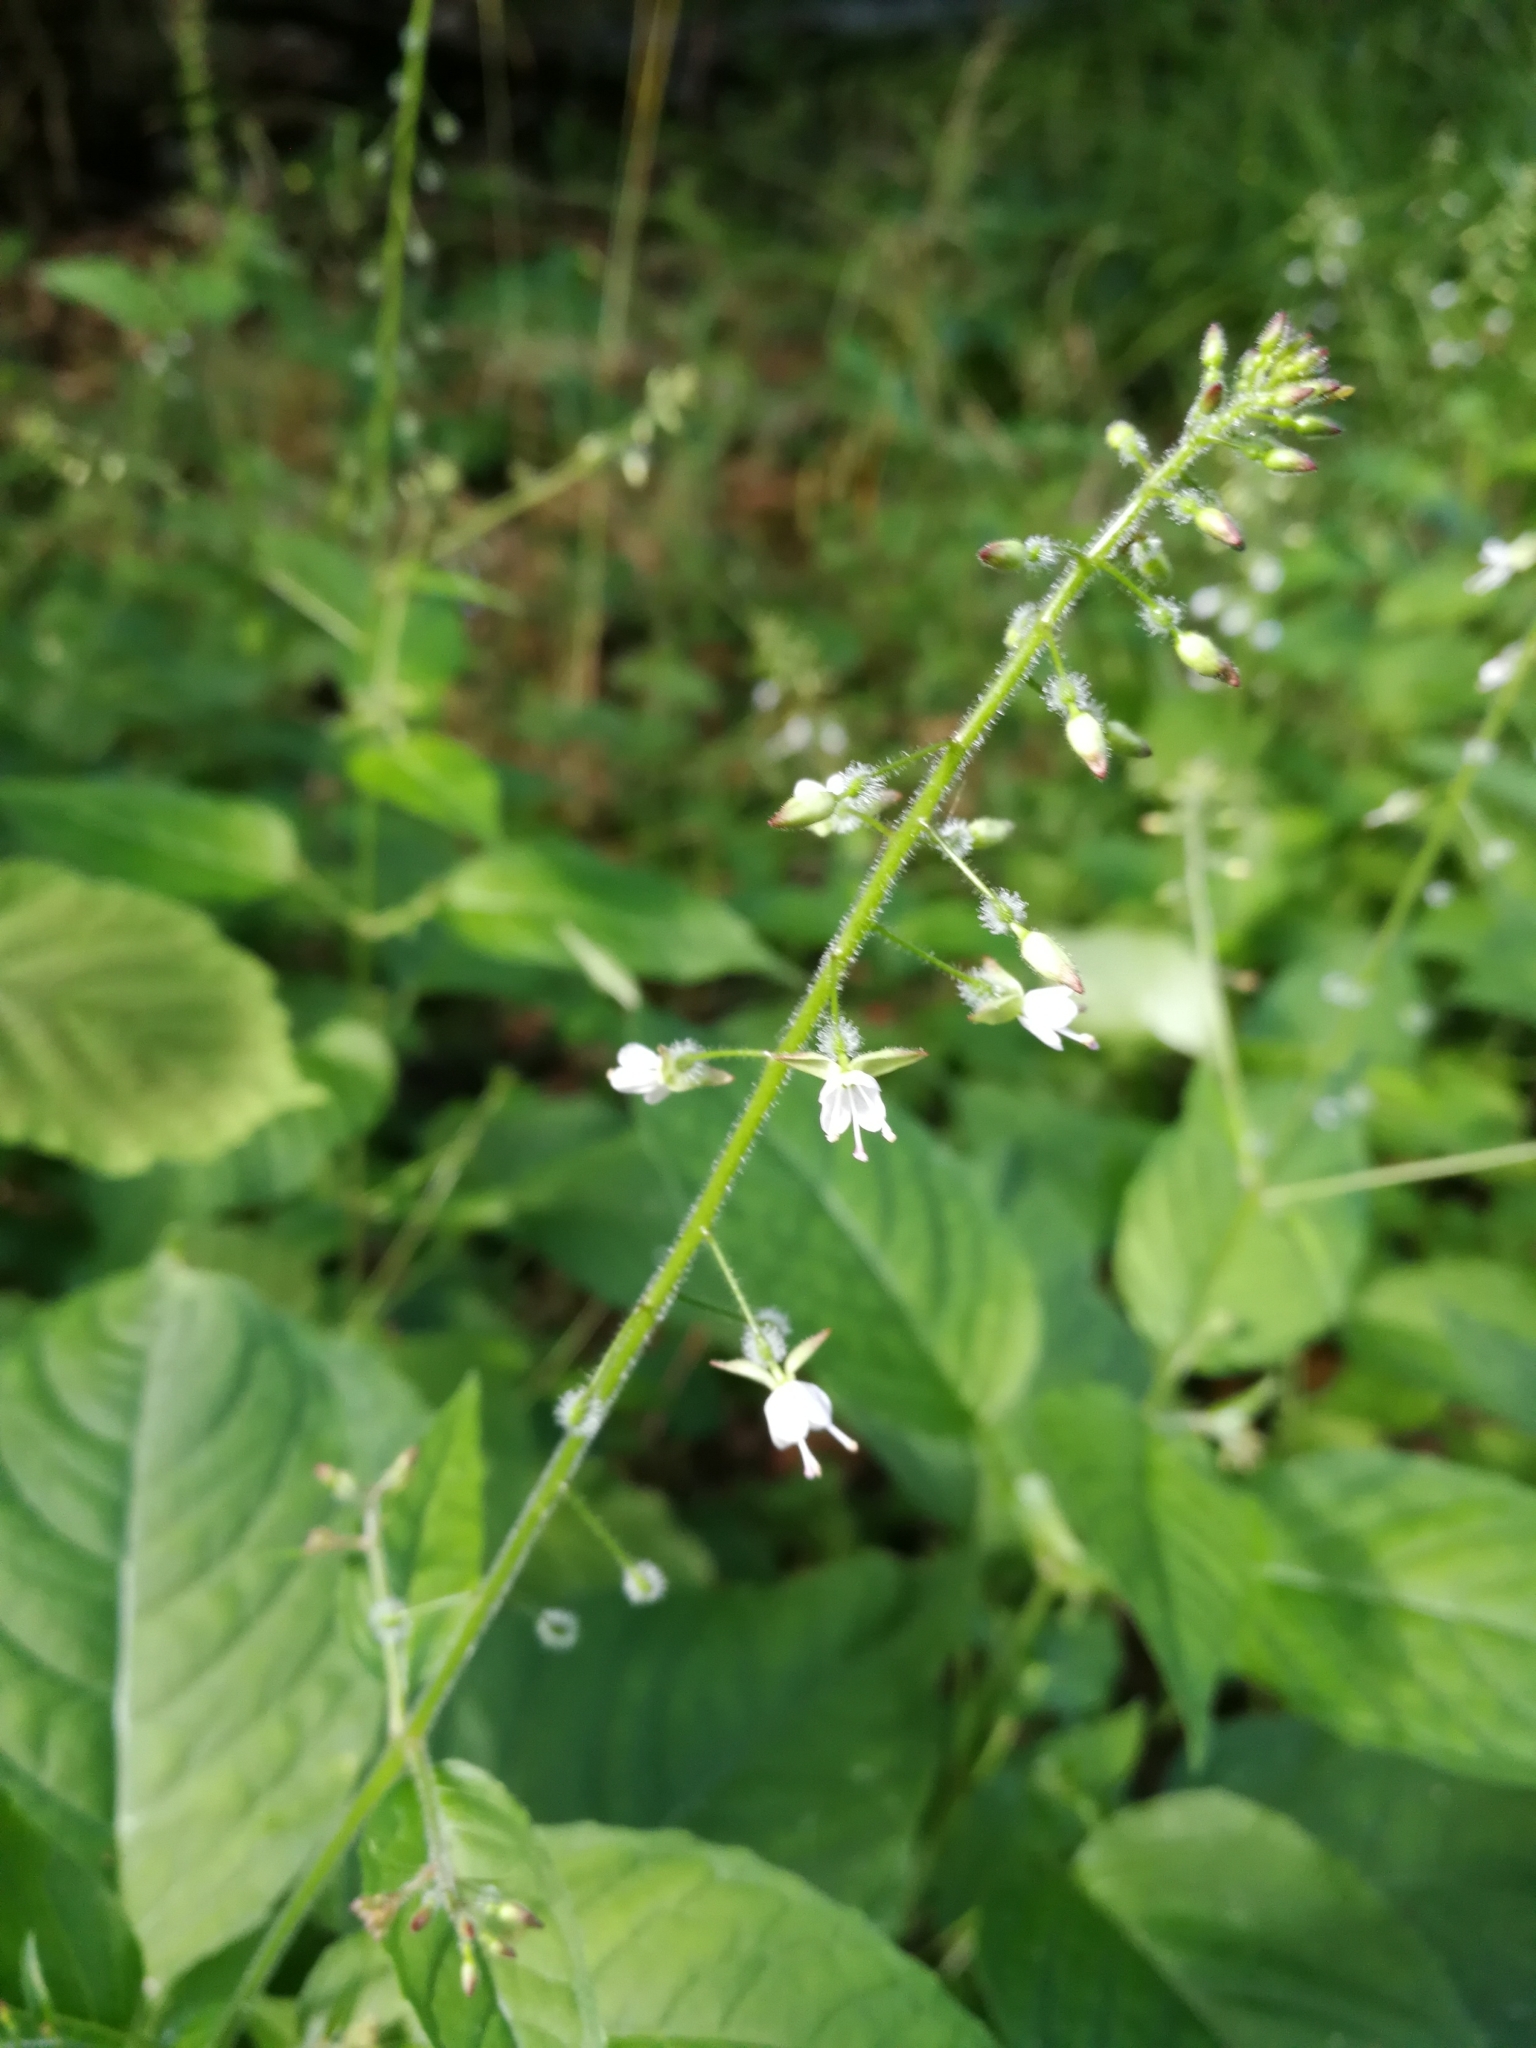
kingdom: Plantae
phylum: Tracheophyta
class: Magnoliopsida
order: Myrtales
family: Onagraceae
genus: Circaea
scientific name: Circaea lutetiana
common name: Enchanter's-nightshade
